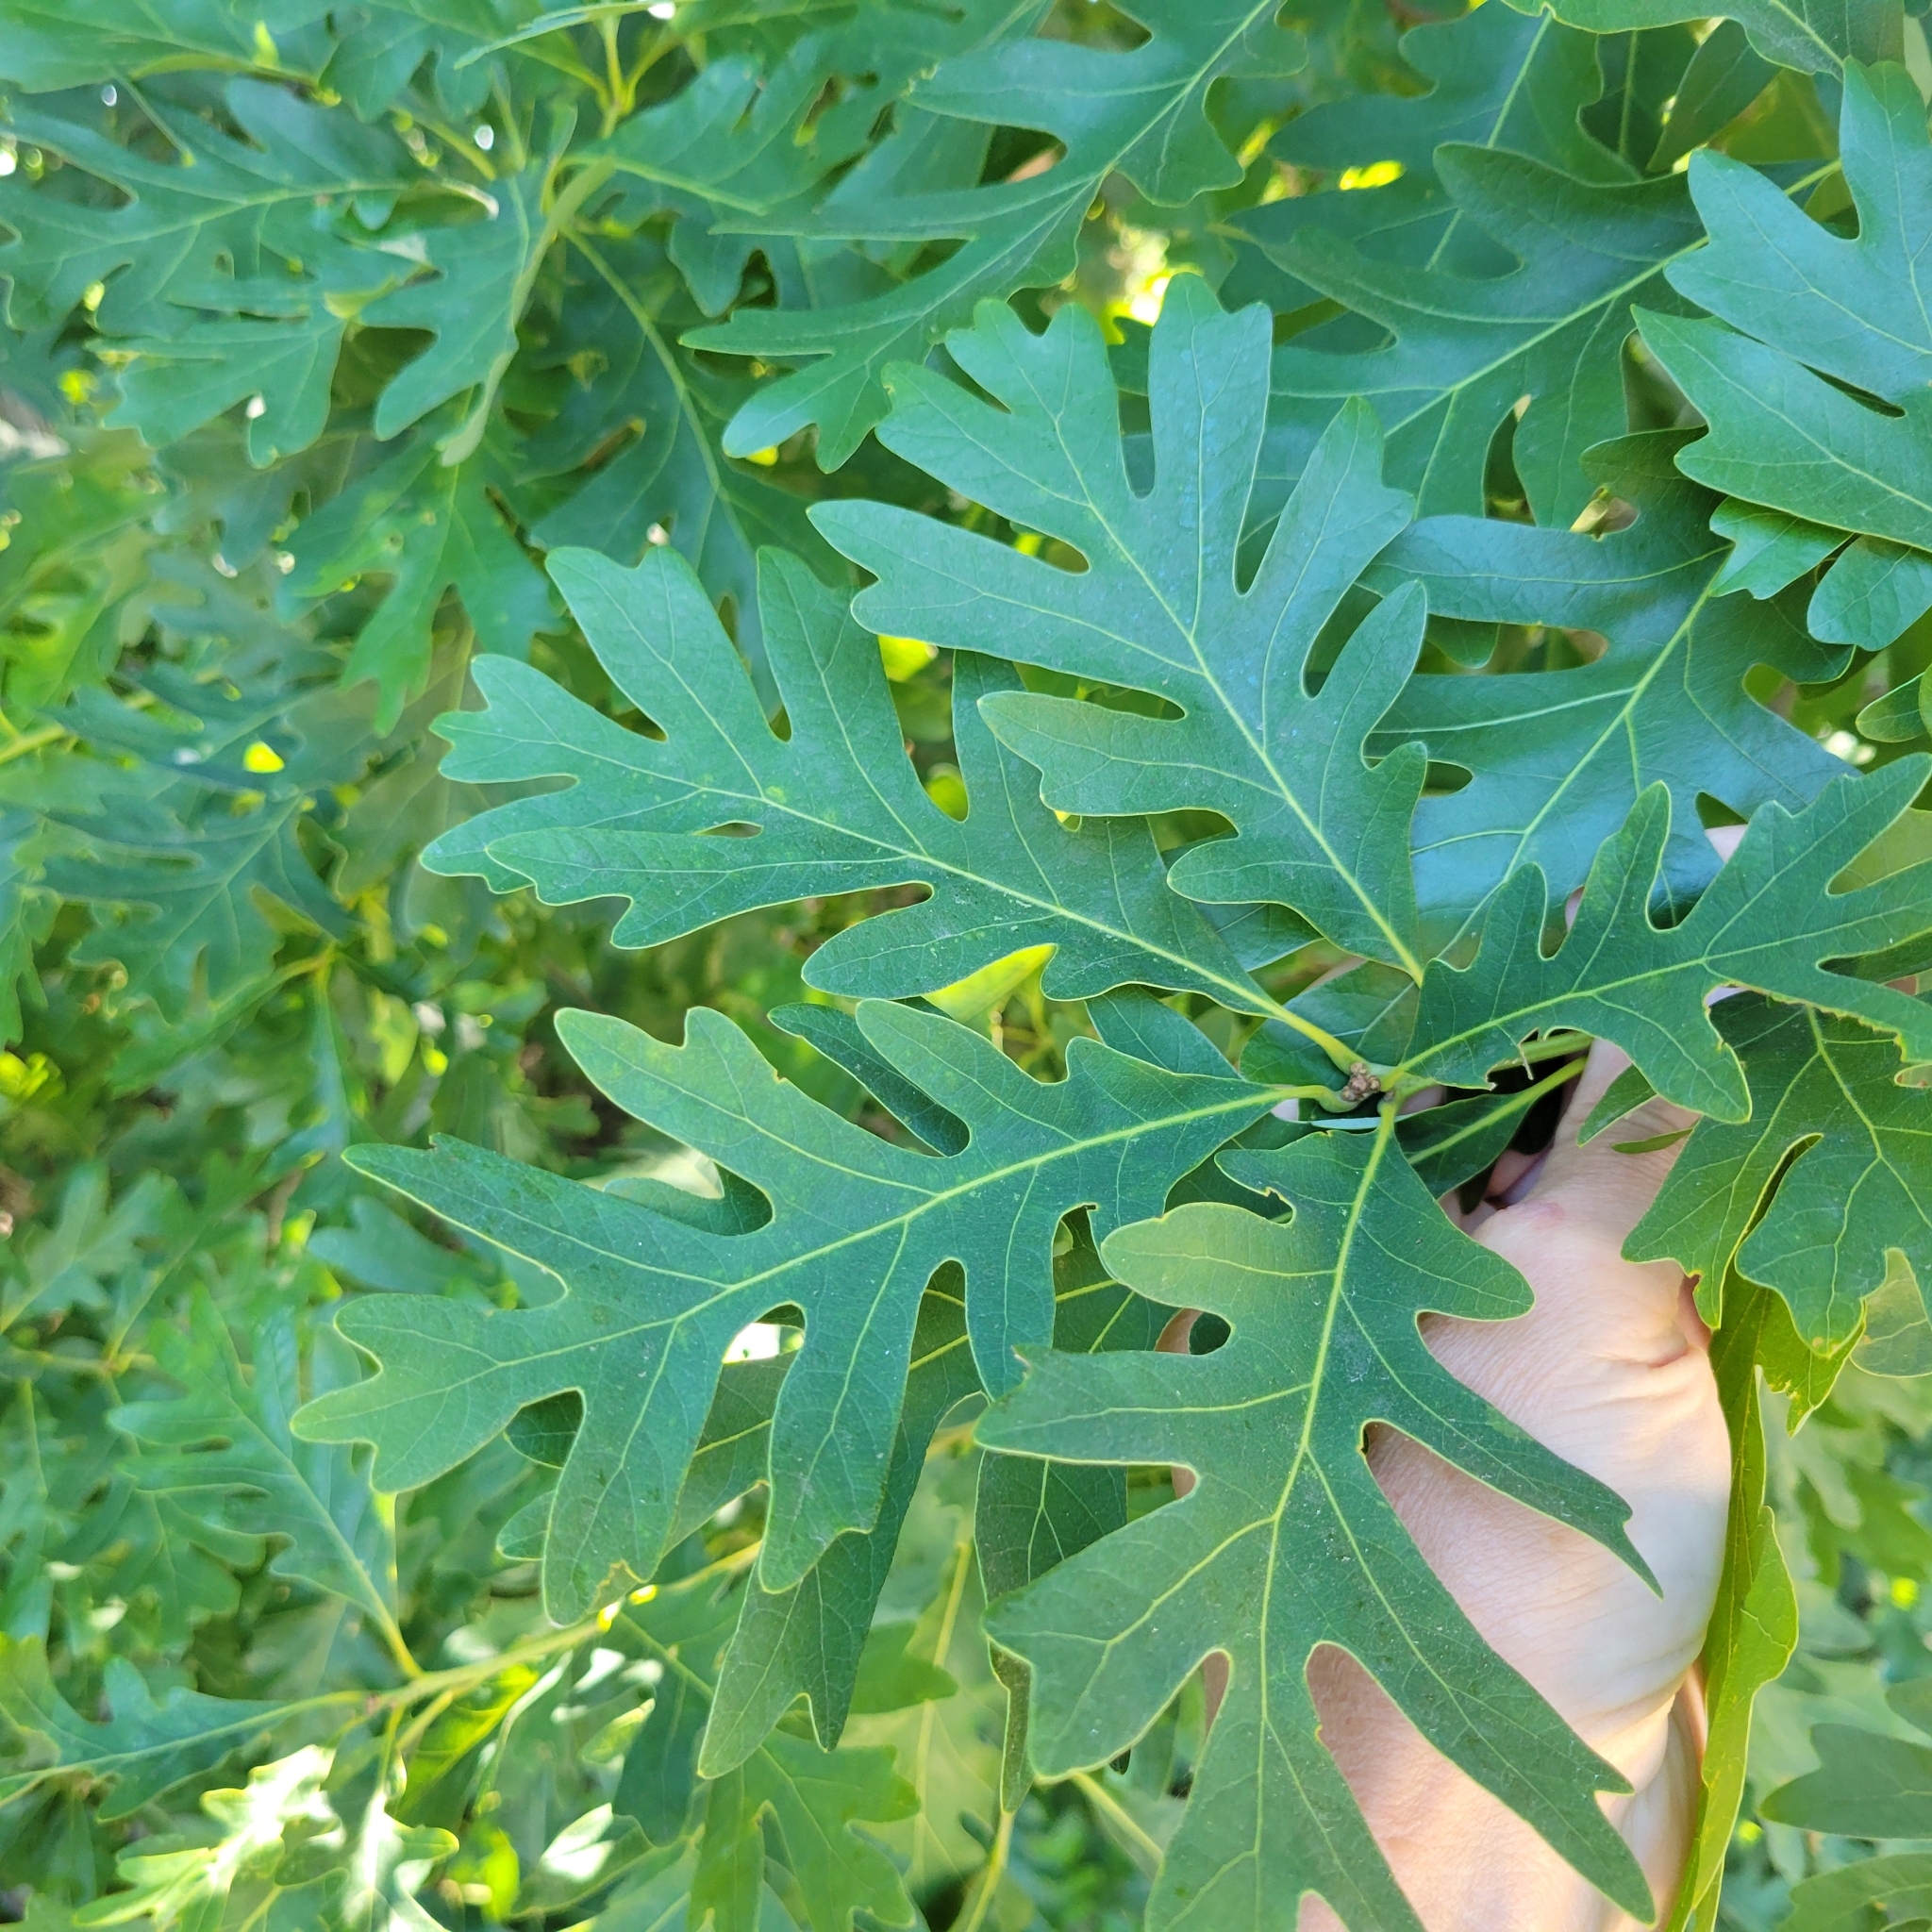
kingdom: Plantae
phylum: Tracheophyta
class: Magnoliopsida
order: Fagales
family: Fagaceae
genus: Quercus
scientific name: Quercus alba
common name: White oak
